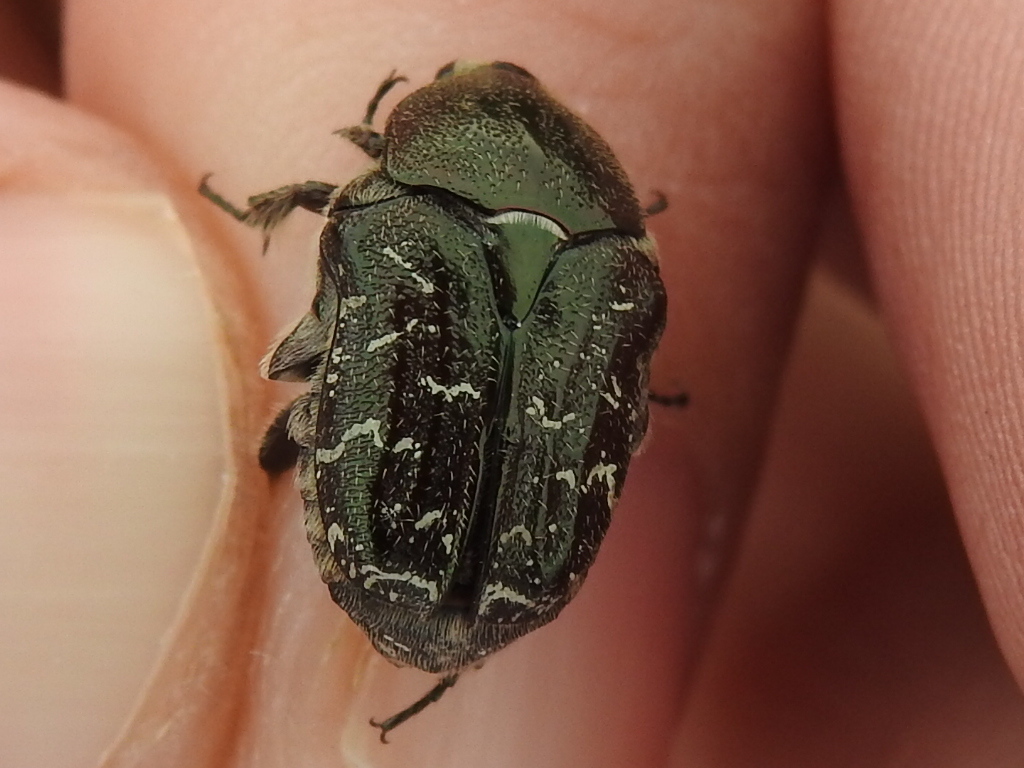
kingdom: Animalia
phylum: Arthropoda
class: Insecta
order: Coleoptera
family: Scarabaeidae
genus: Euphoria
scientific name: Euphoria sepulcralis
